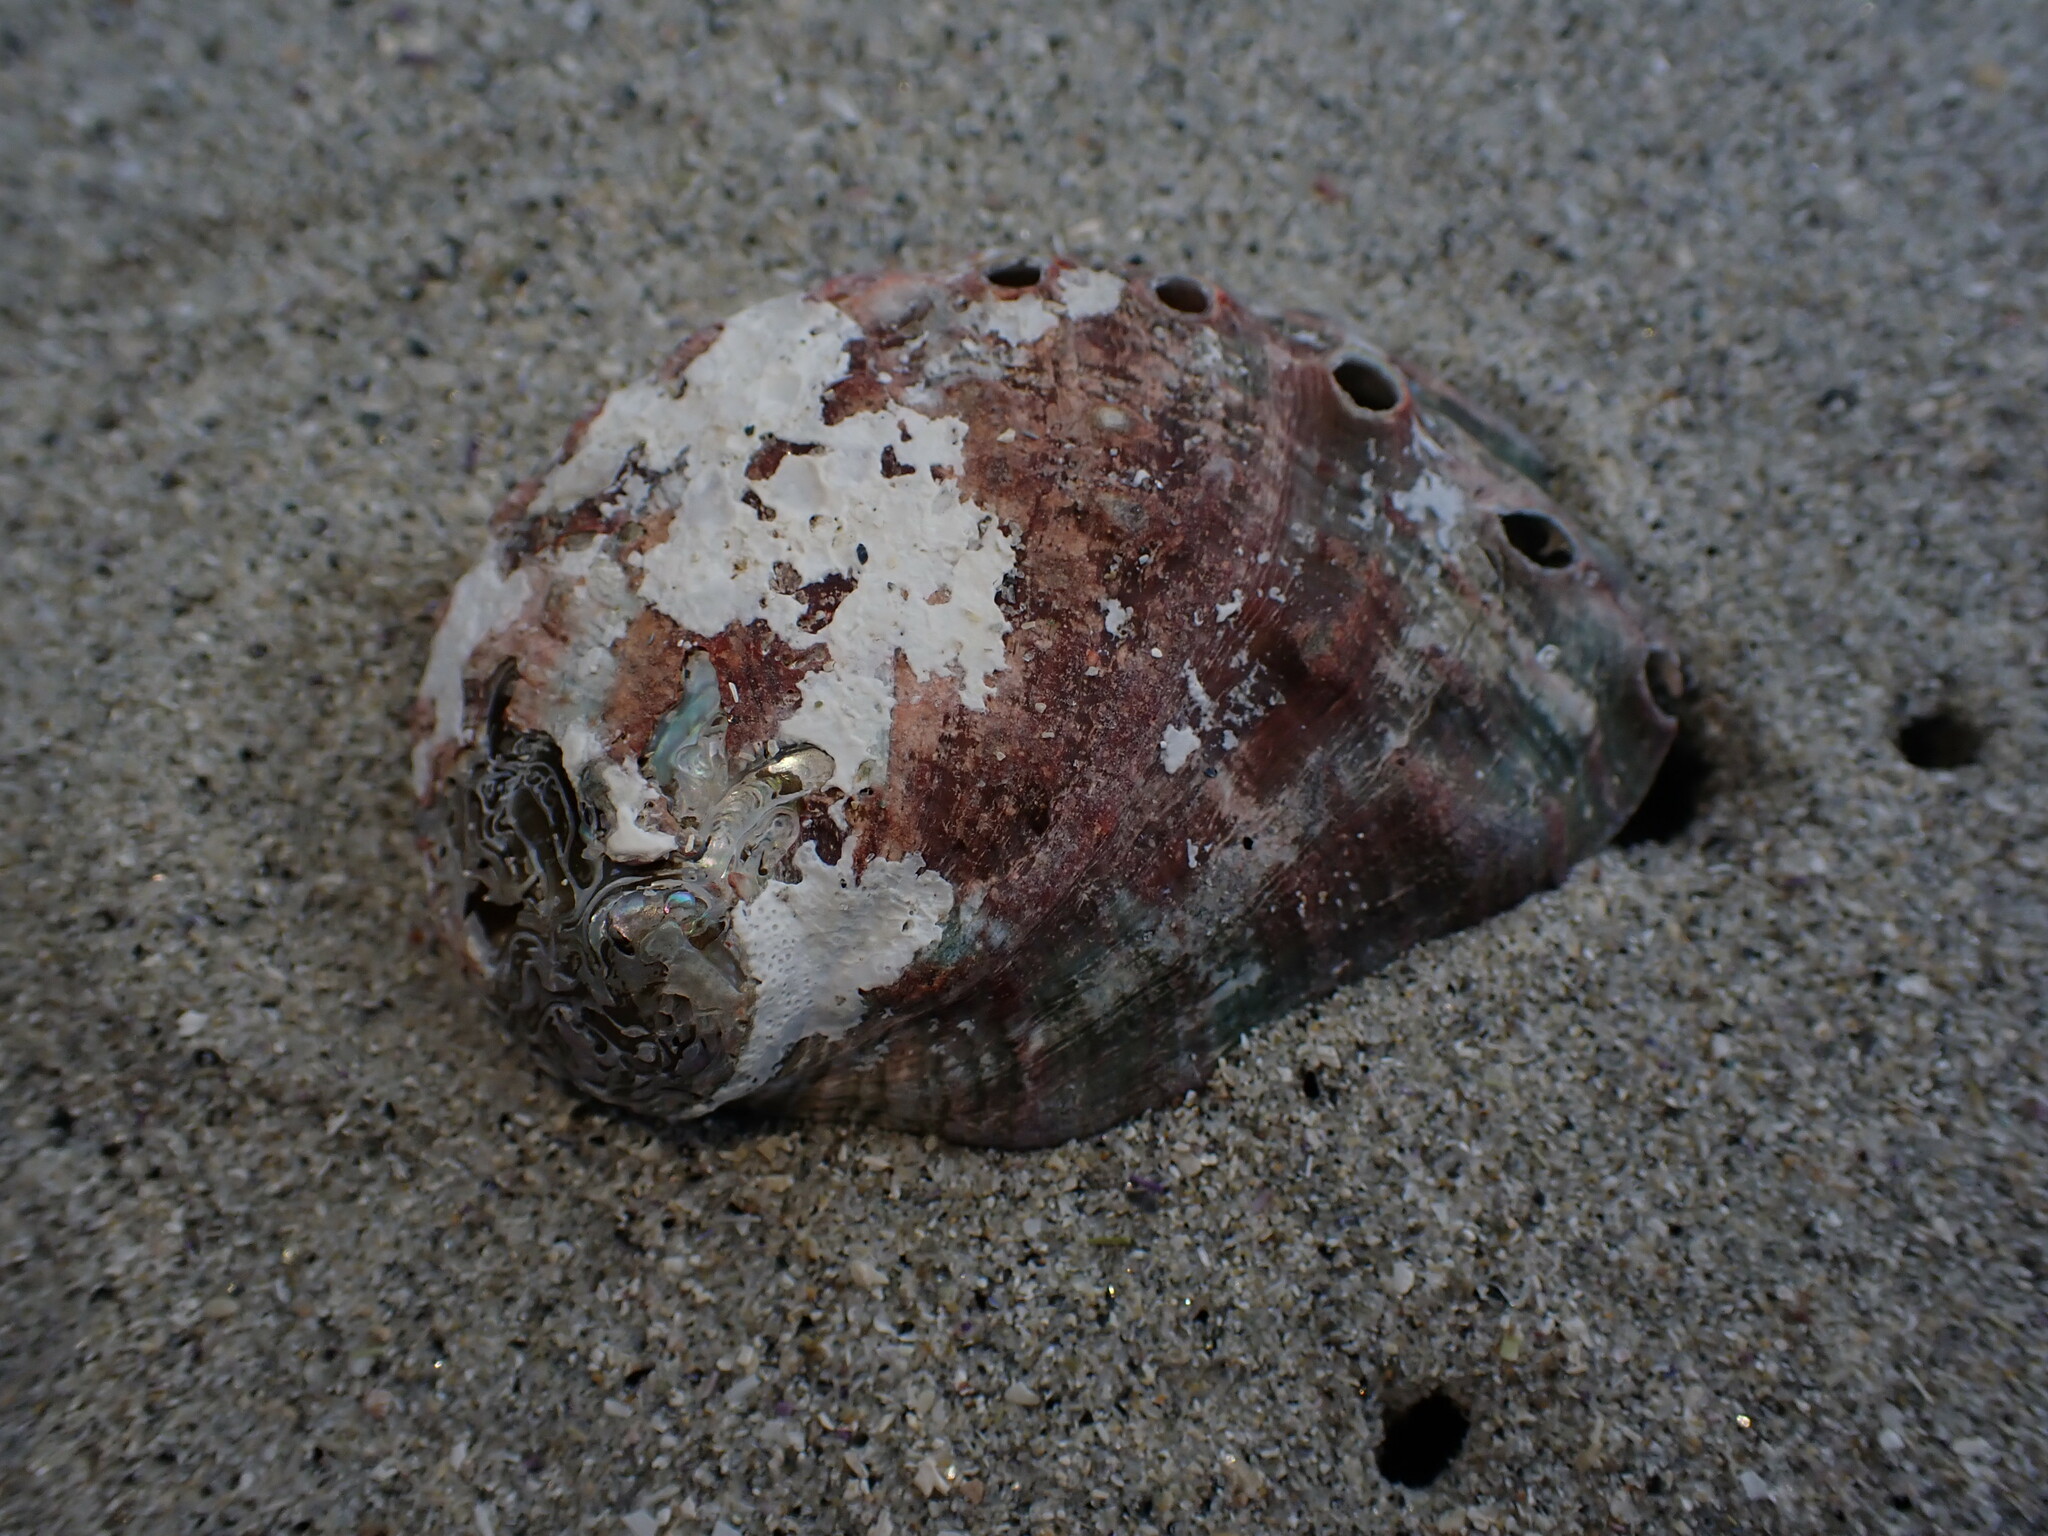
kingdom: Animalia
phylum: Mollusca
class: Gastropoda
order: Lepetellida
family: Haliotidae
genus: Haliotis
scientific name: Haliotis kamtschatkana
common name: Pinto abalone
